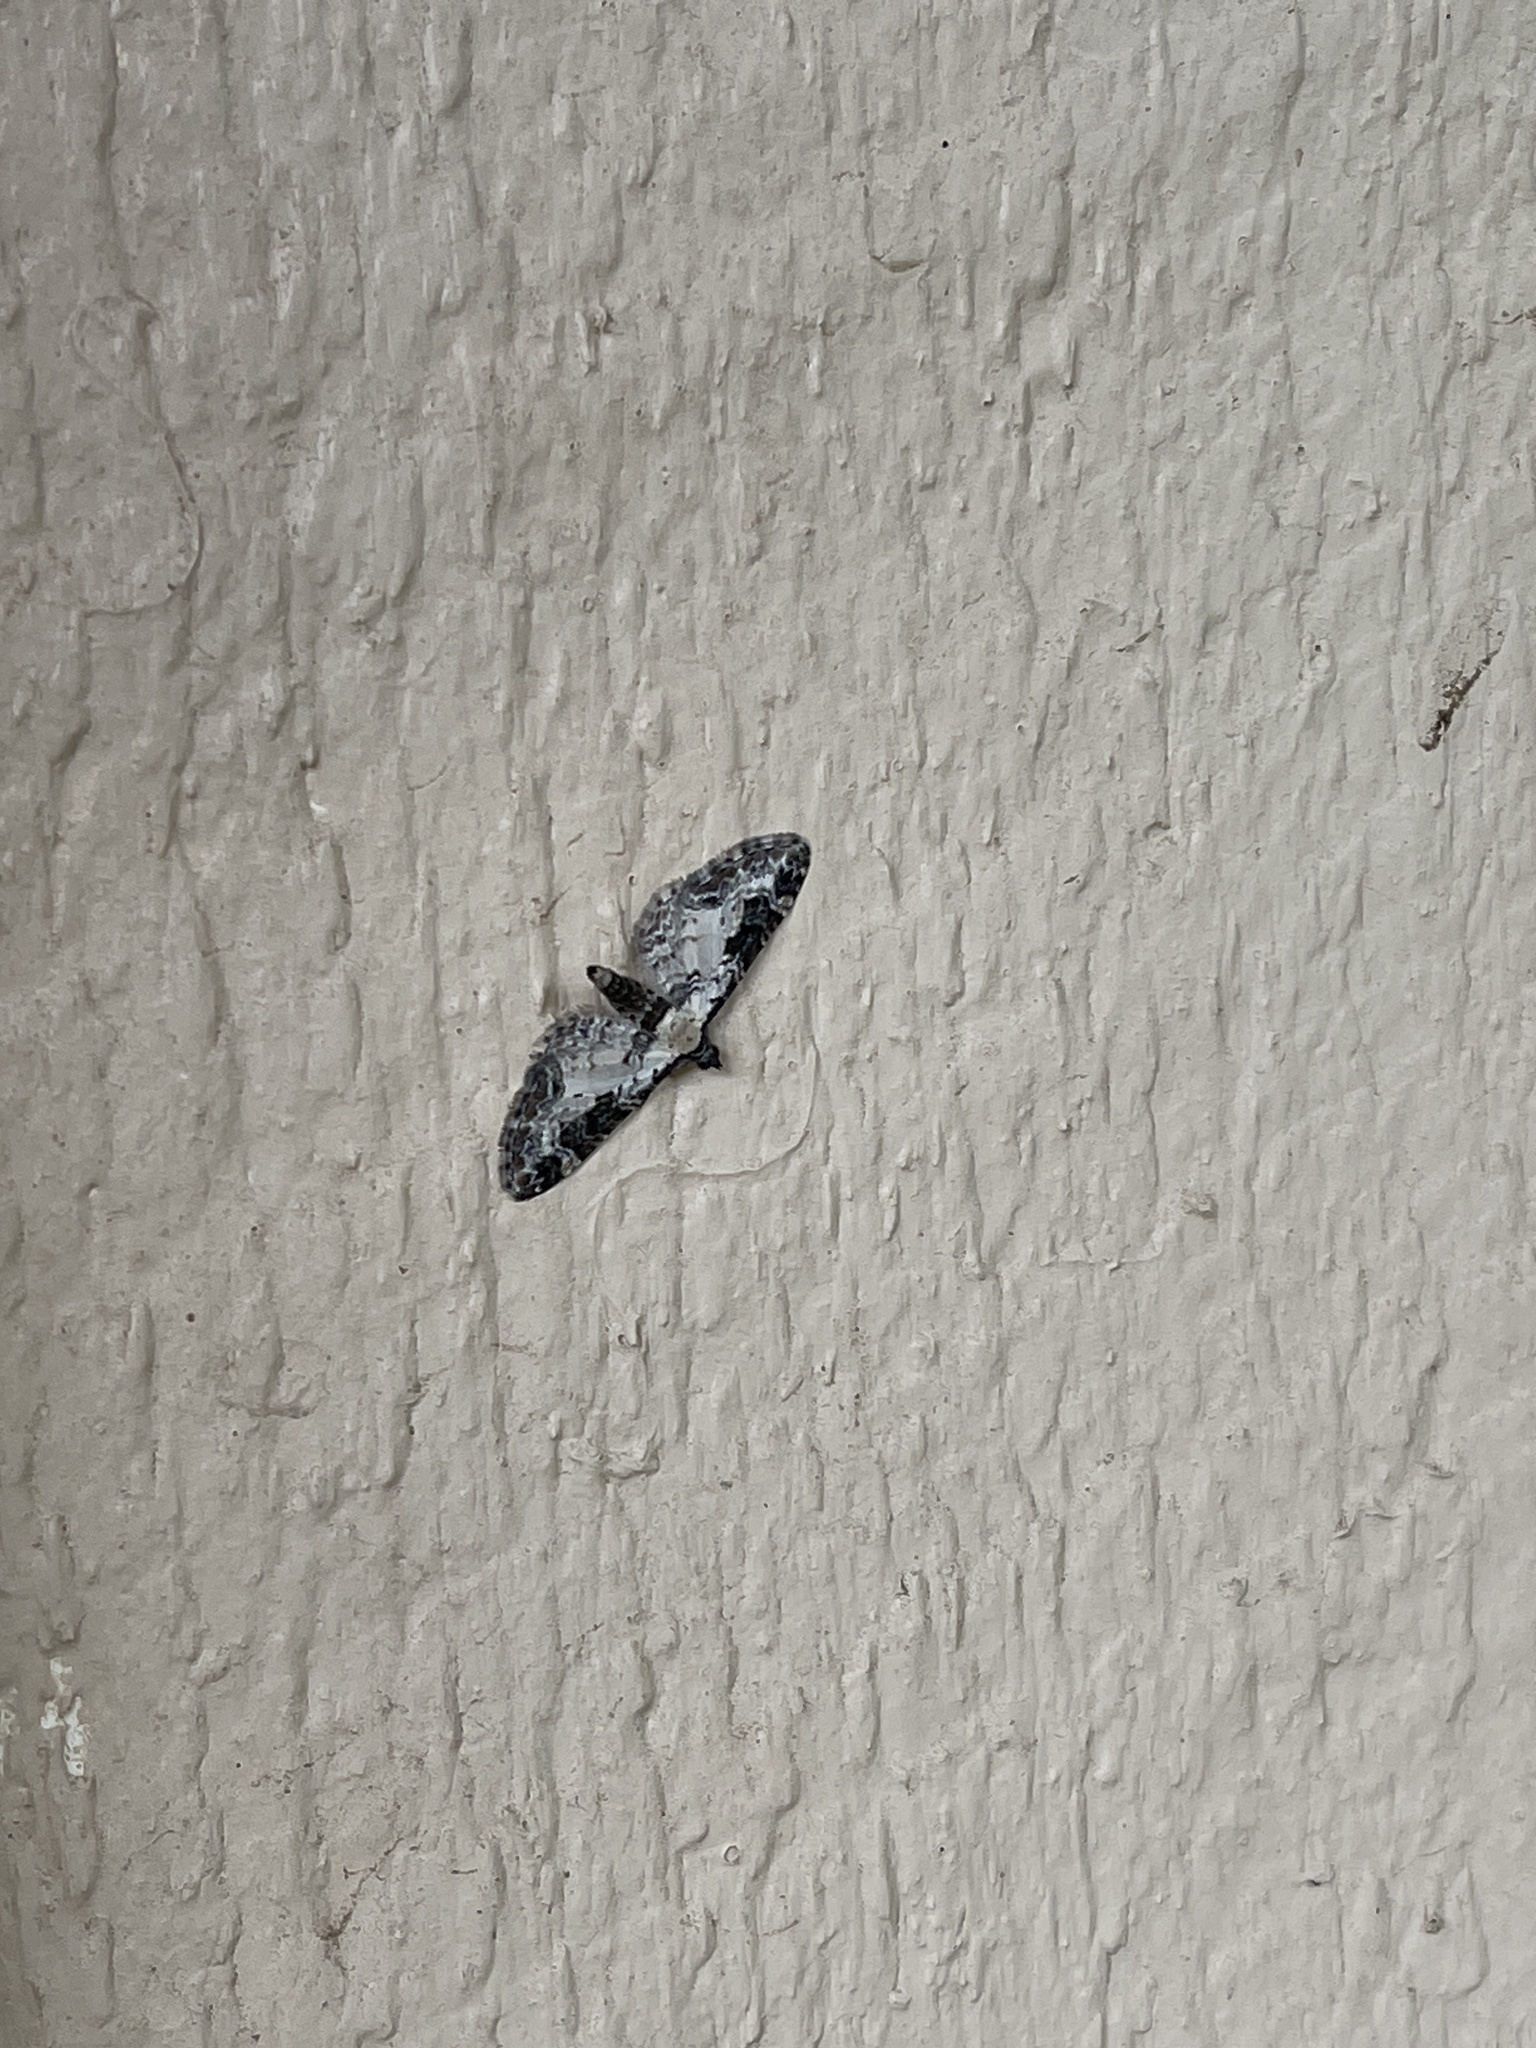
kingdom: Animalia
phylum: Arthropoda
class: Insecta
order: Lepidoptera
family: Geometridae
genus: Prorella
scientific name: Prorella gypsata
